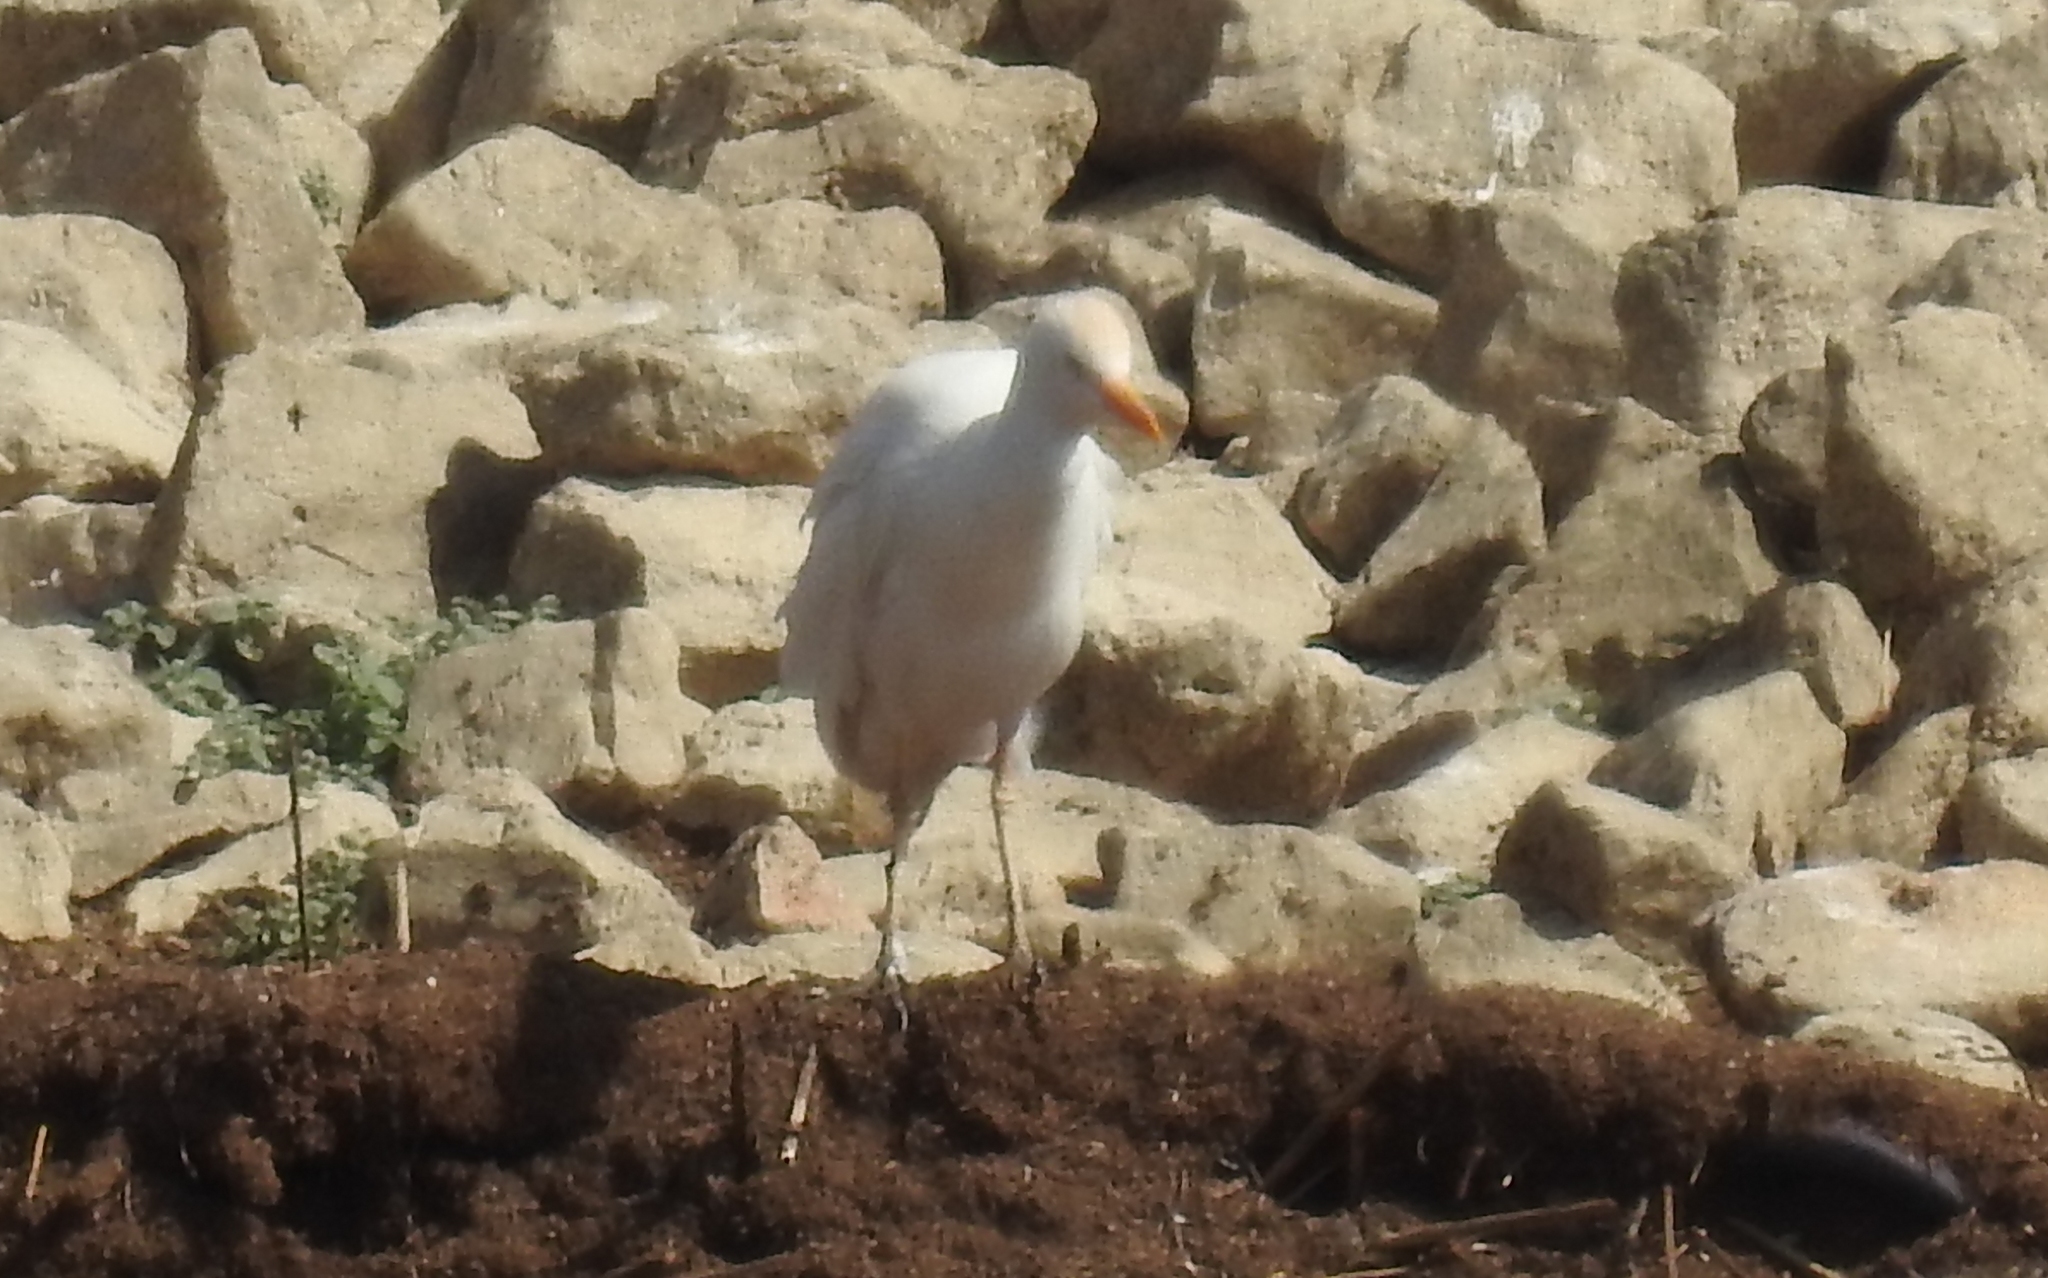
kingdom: Animalia
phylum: Chordata
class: Aves
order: Pelecaniformes
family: Ardeidae
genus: Bubulcus
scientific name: Bubulcus ibis
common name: Cattle egret
